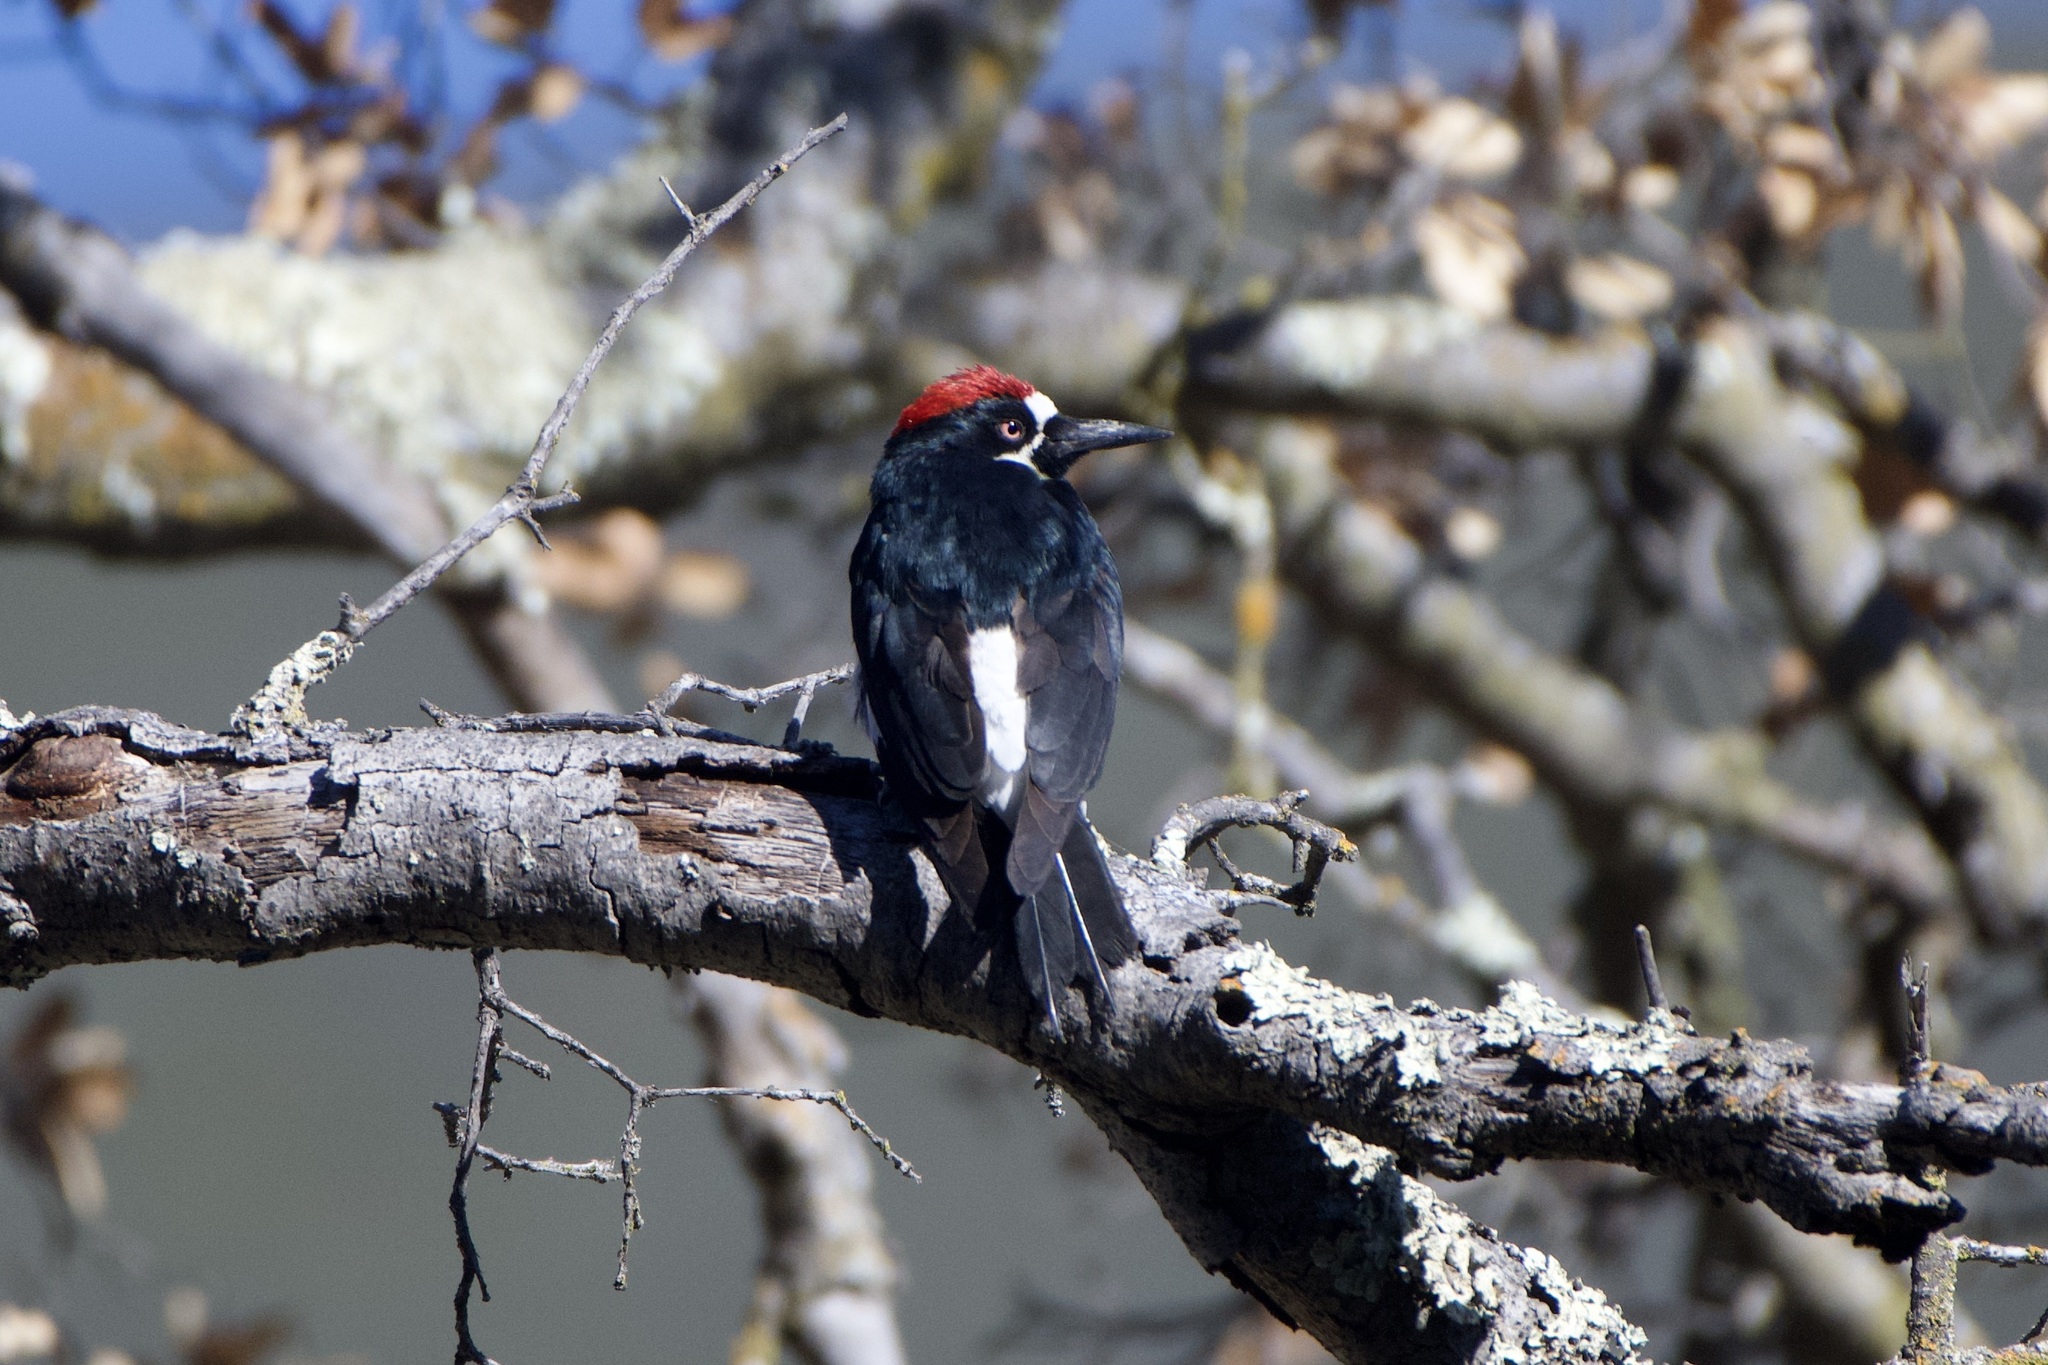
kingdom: Animalia
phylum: Chordata
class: Aves
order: Piciformes
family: Picidae
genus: Melanerpes
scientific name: Melanerpes formicivorus
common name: Acorn woodpecker
